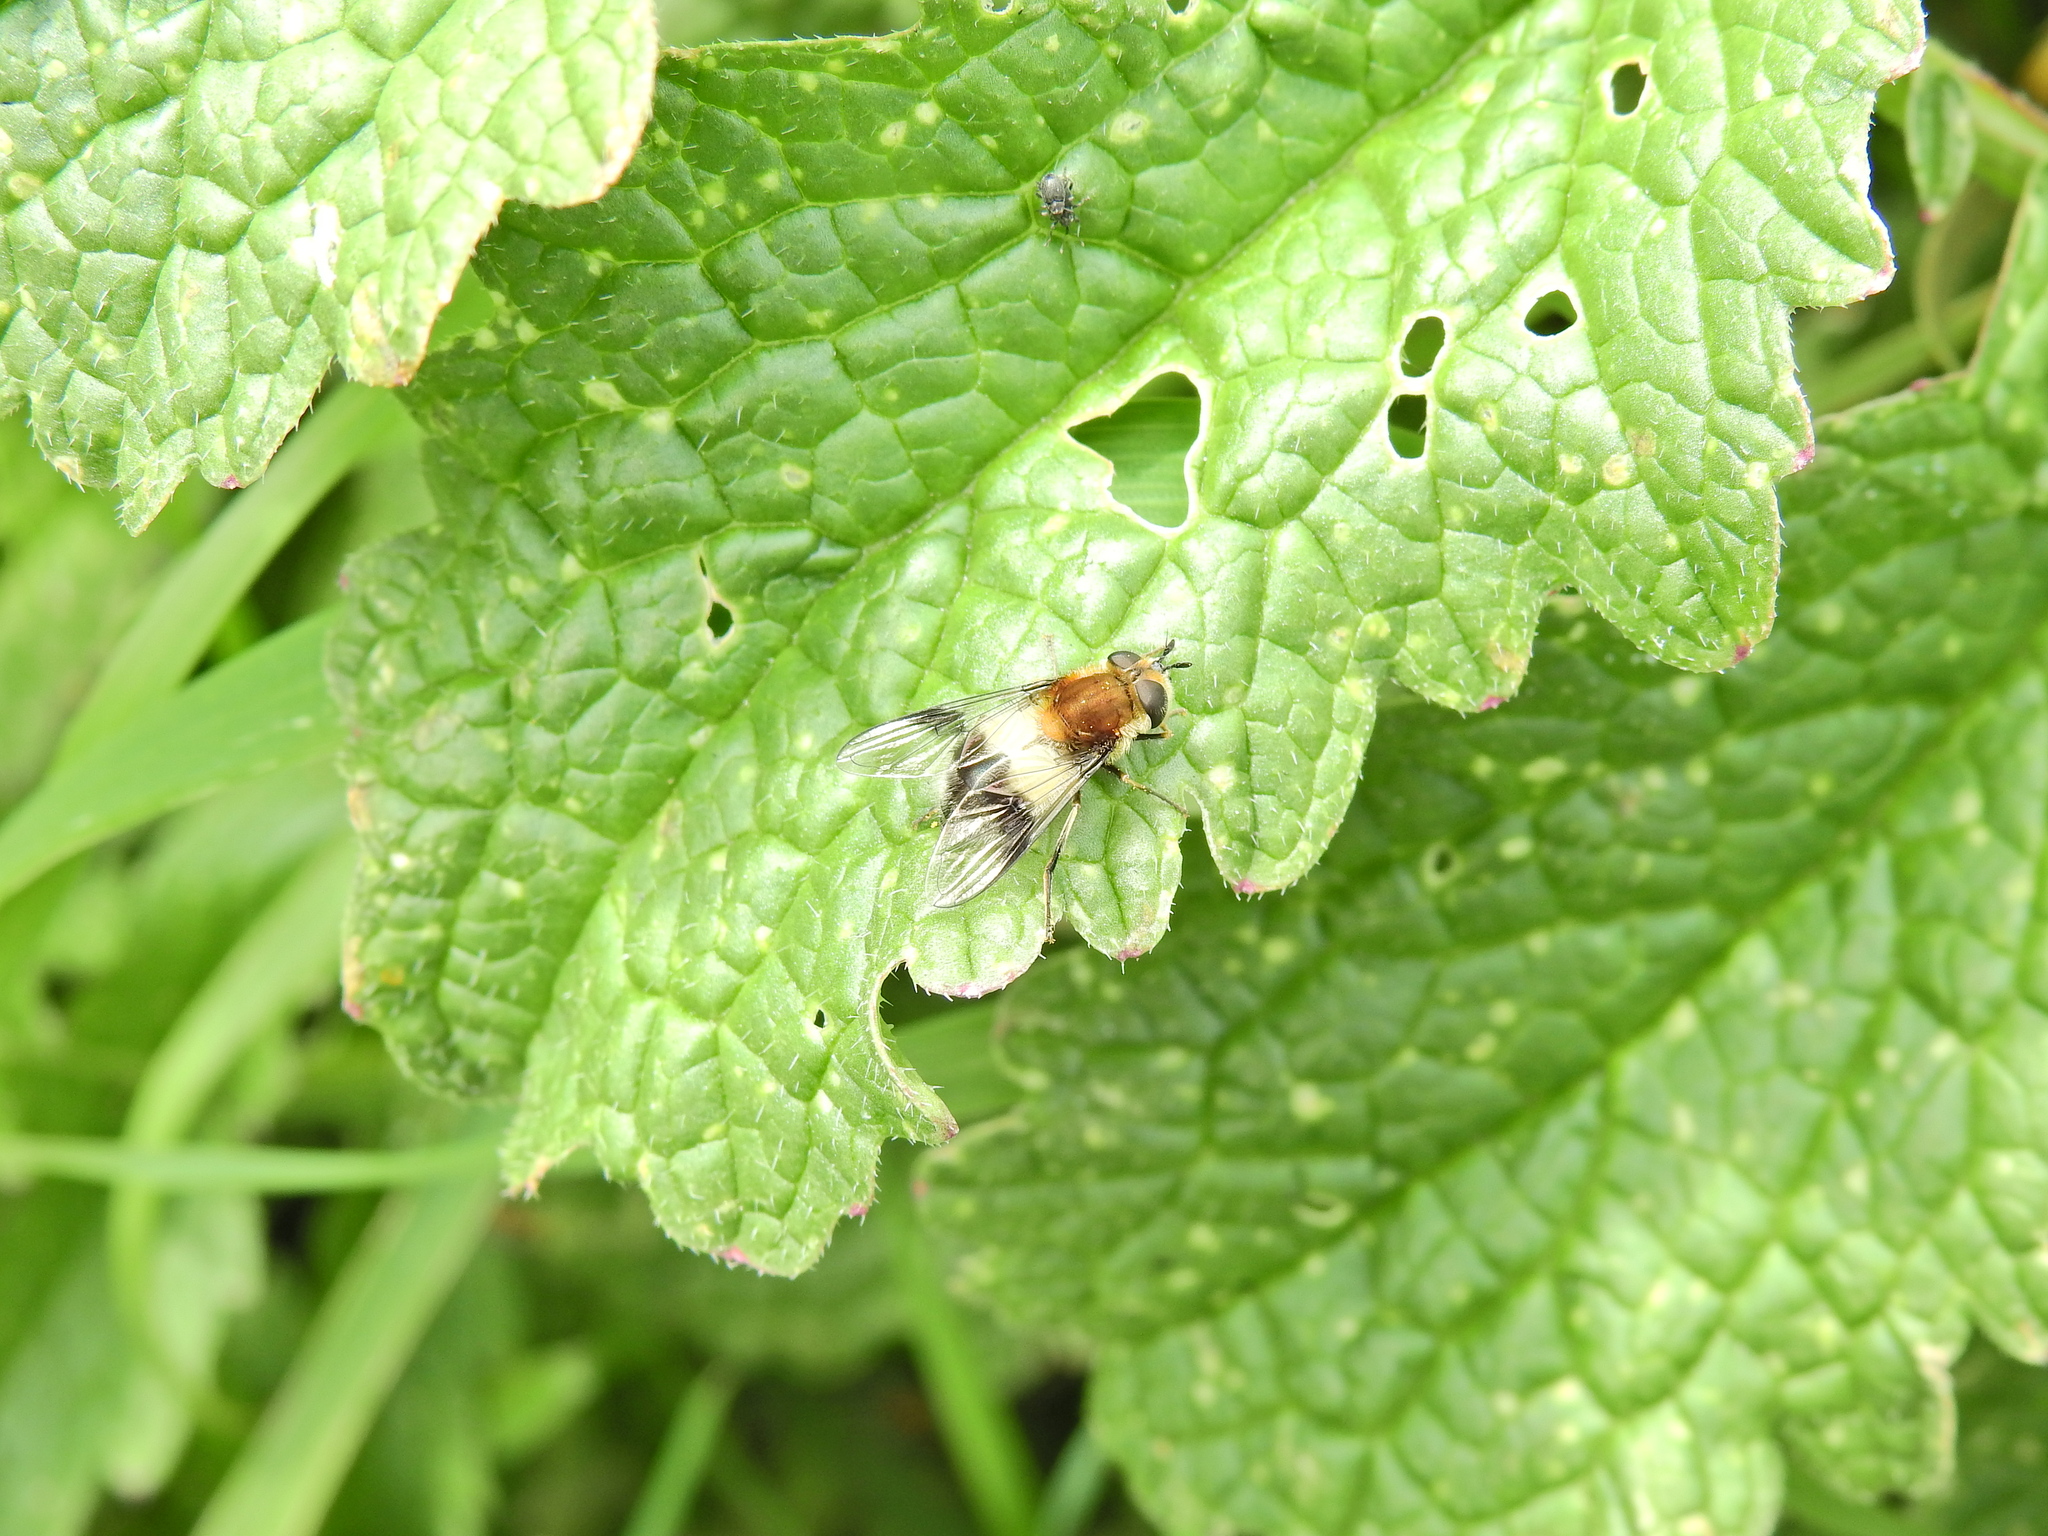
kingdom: Animalia
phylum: Arthropoda
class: Insecta
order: Diptera
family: Syrphidae
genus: Leucozona
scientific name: Leucozona lucorum
